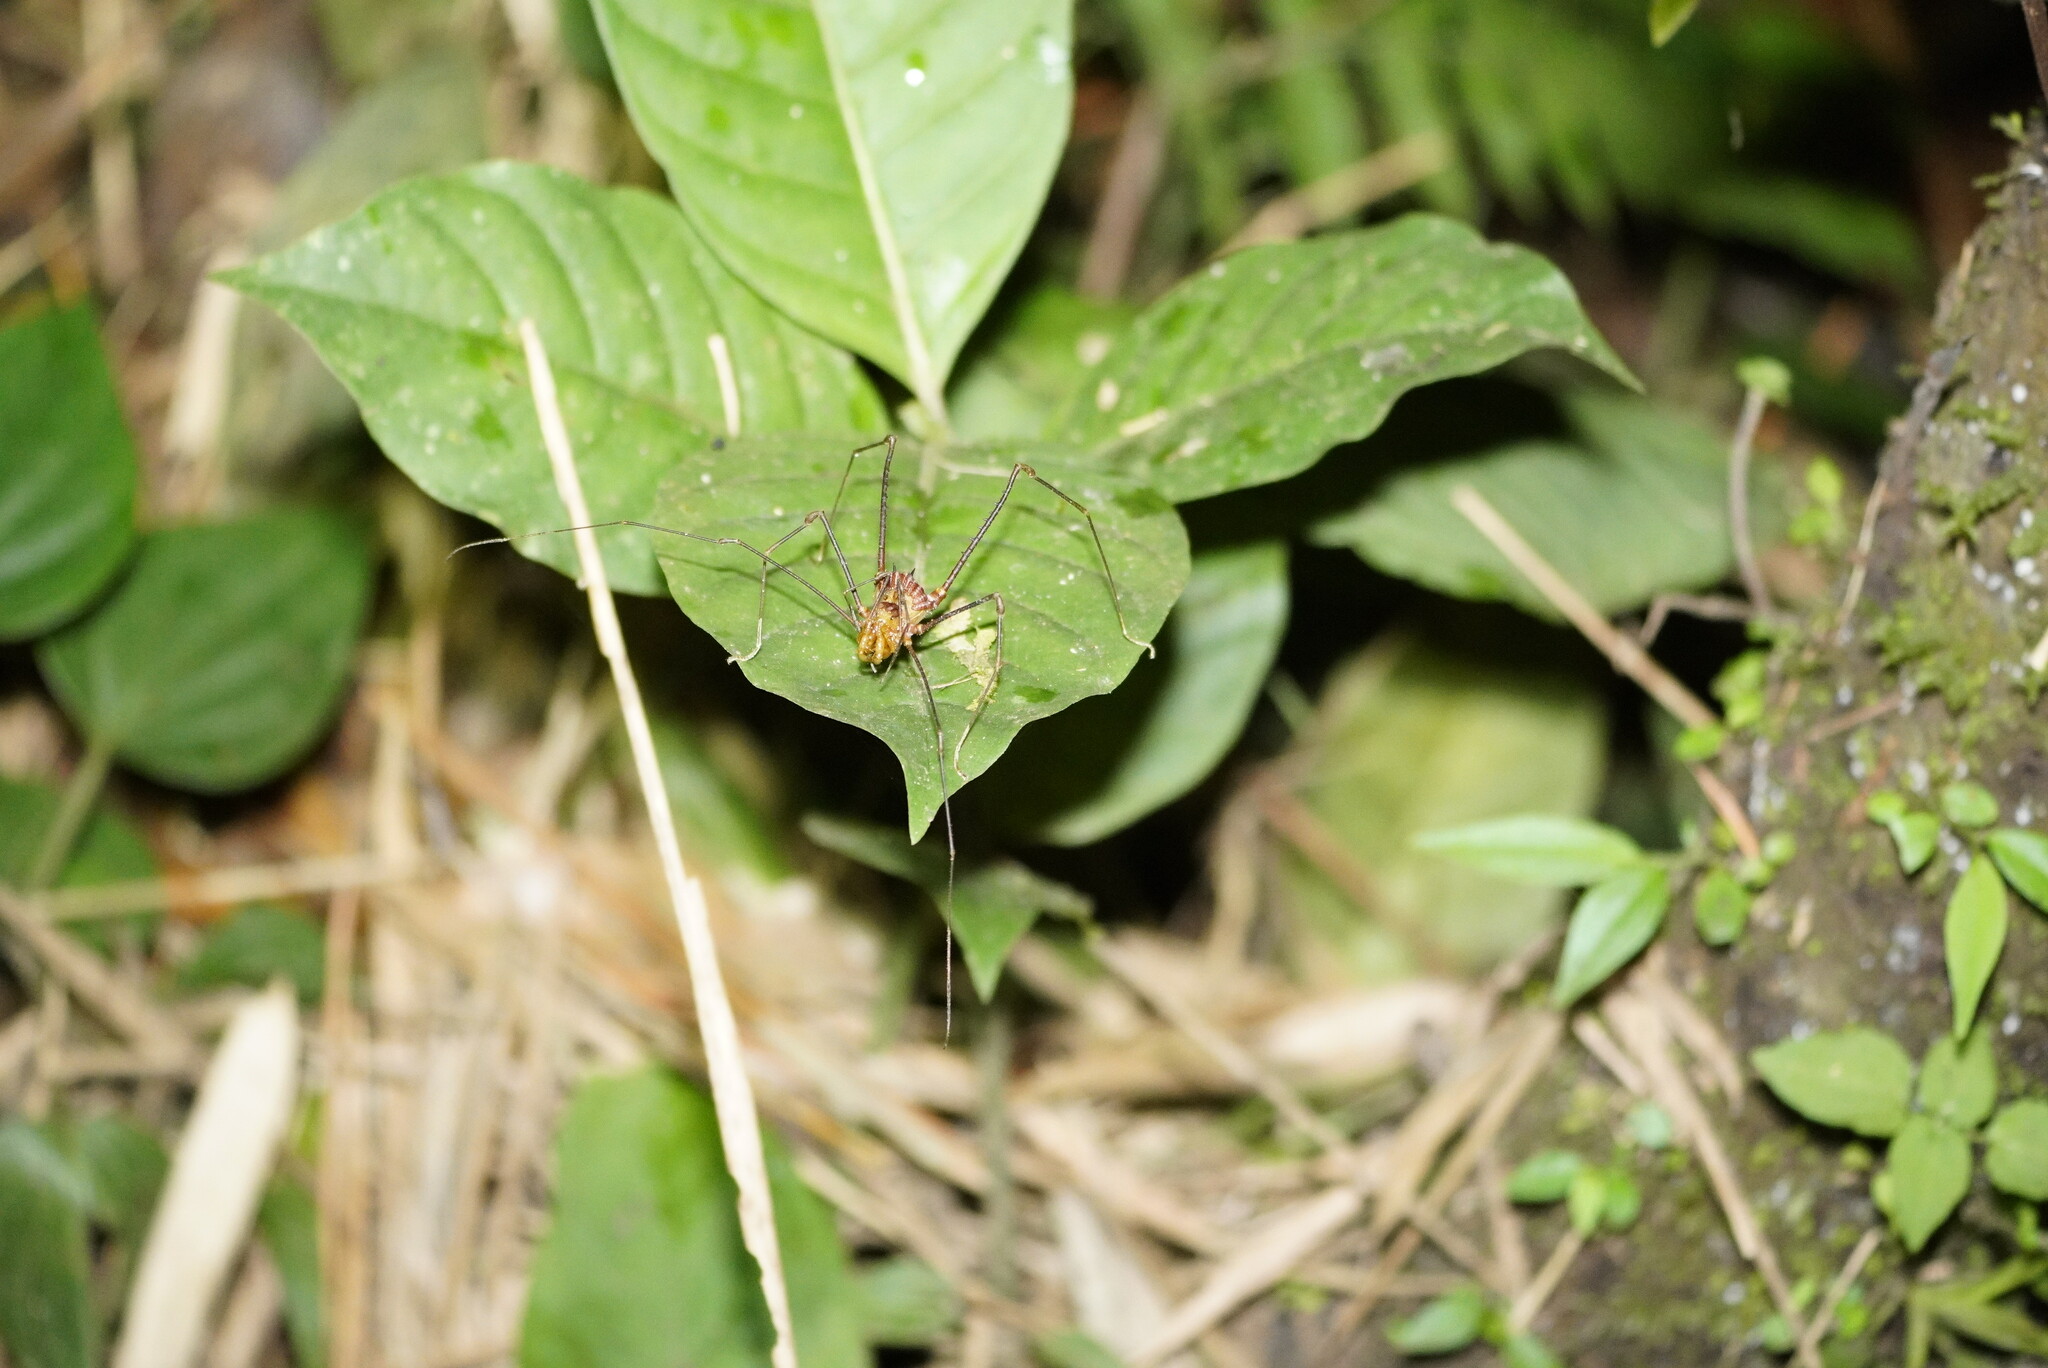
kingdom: Animalia
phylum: Arthropoda
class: Arachnida
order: Opiliones
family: Cranaidae
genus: Ventrivomer
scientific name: Ventrivomer ancyrophorus
